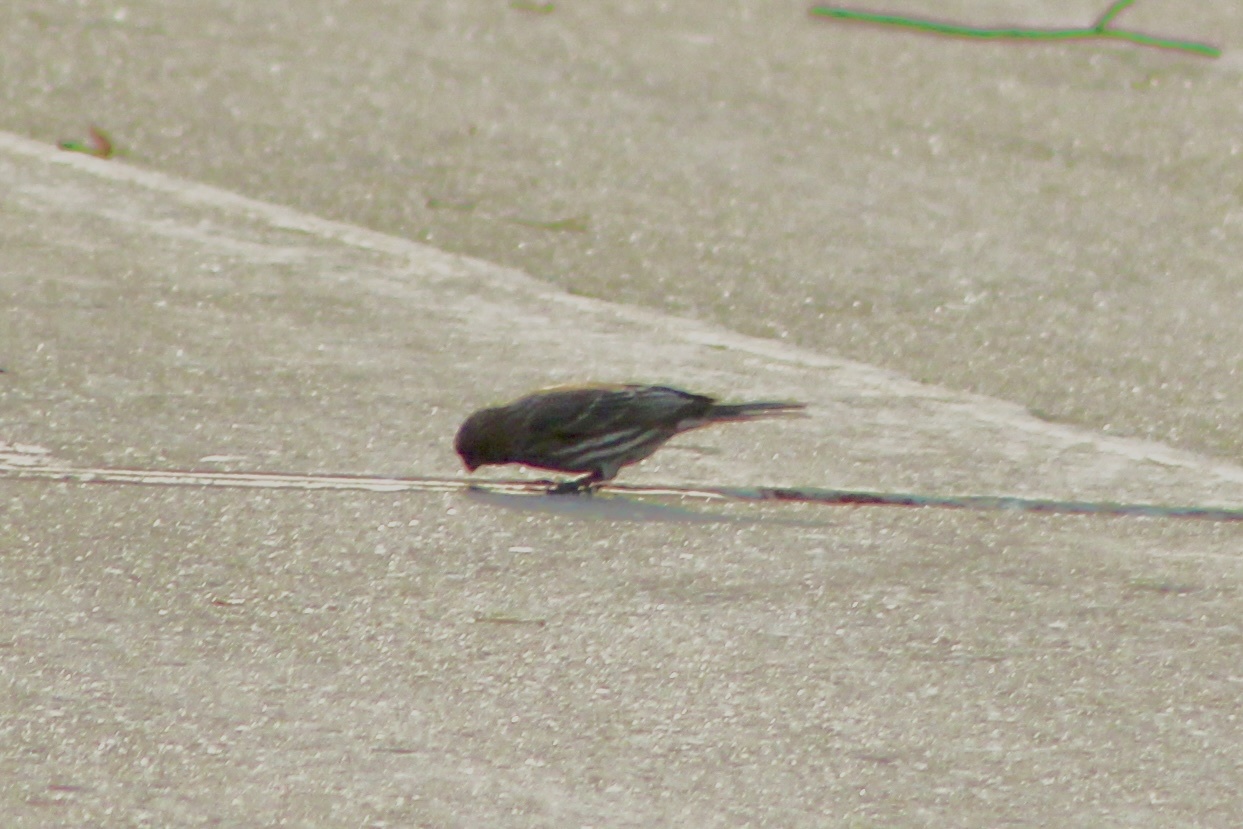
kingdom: Animalia
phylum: Chordata
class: Aves
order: Passeriformes
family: Fringillidae
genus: Haemorhous
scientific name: Haemorhous mexicanus
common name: House finch
